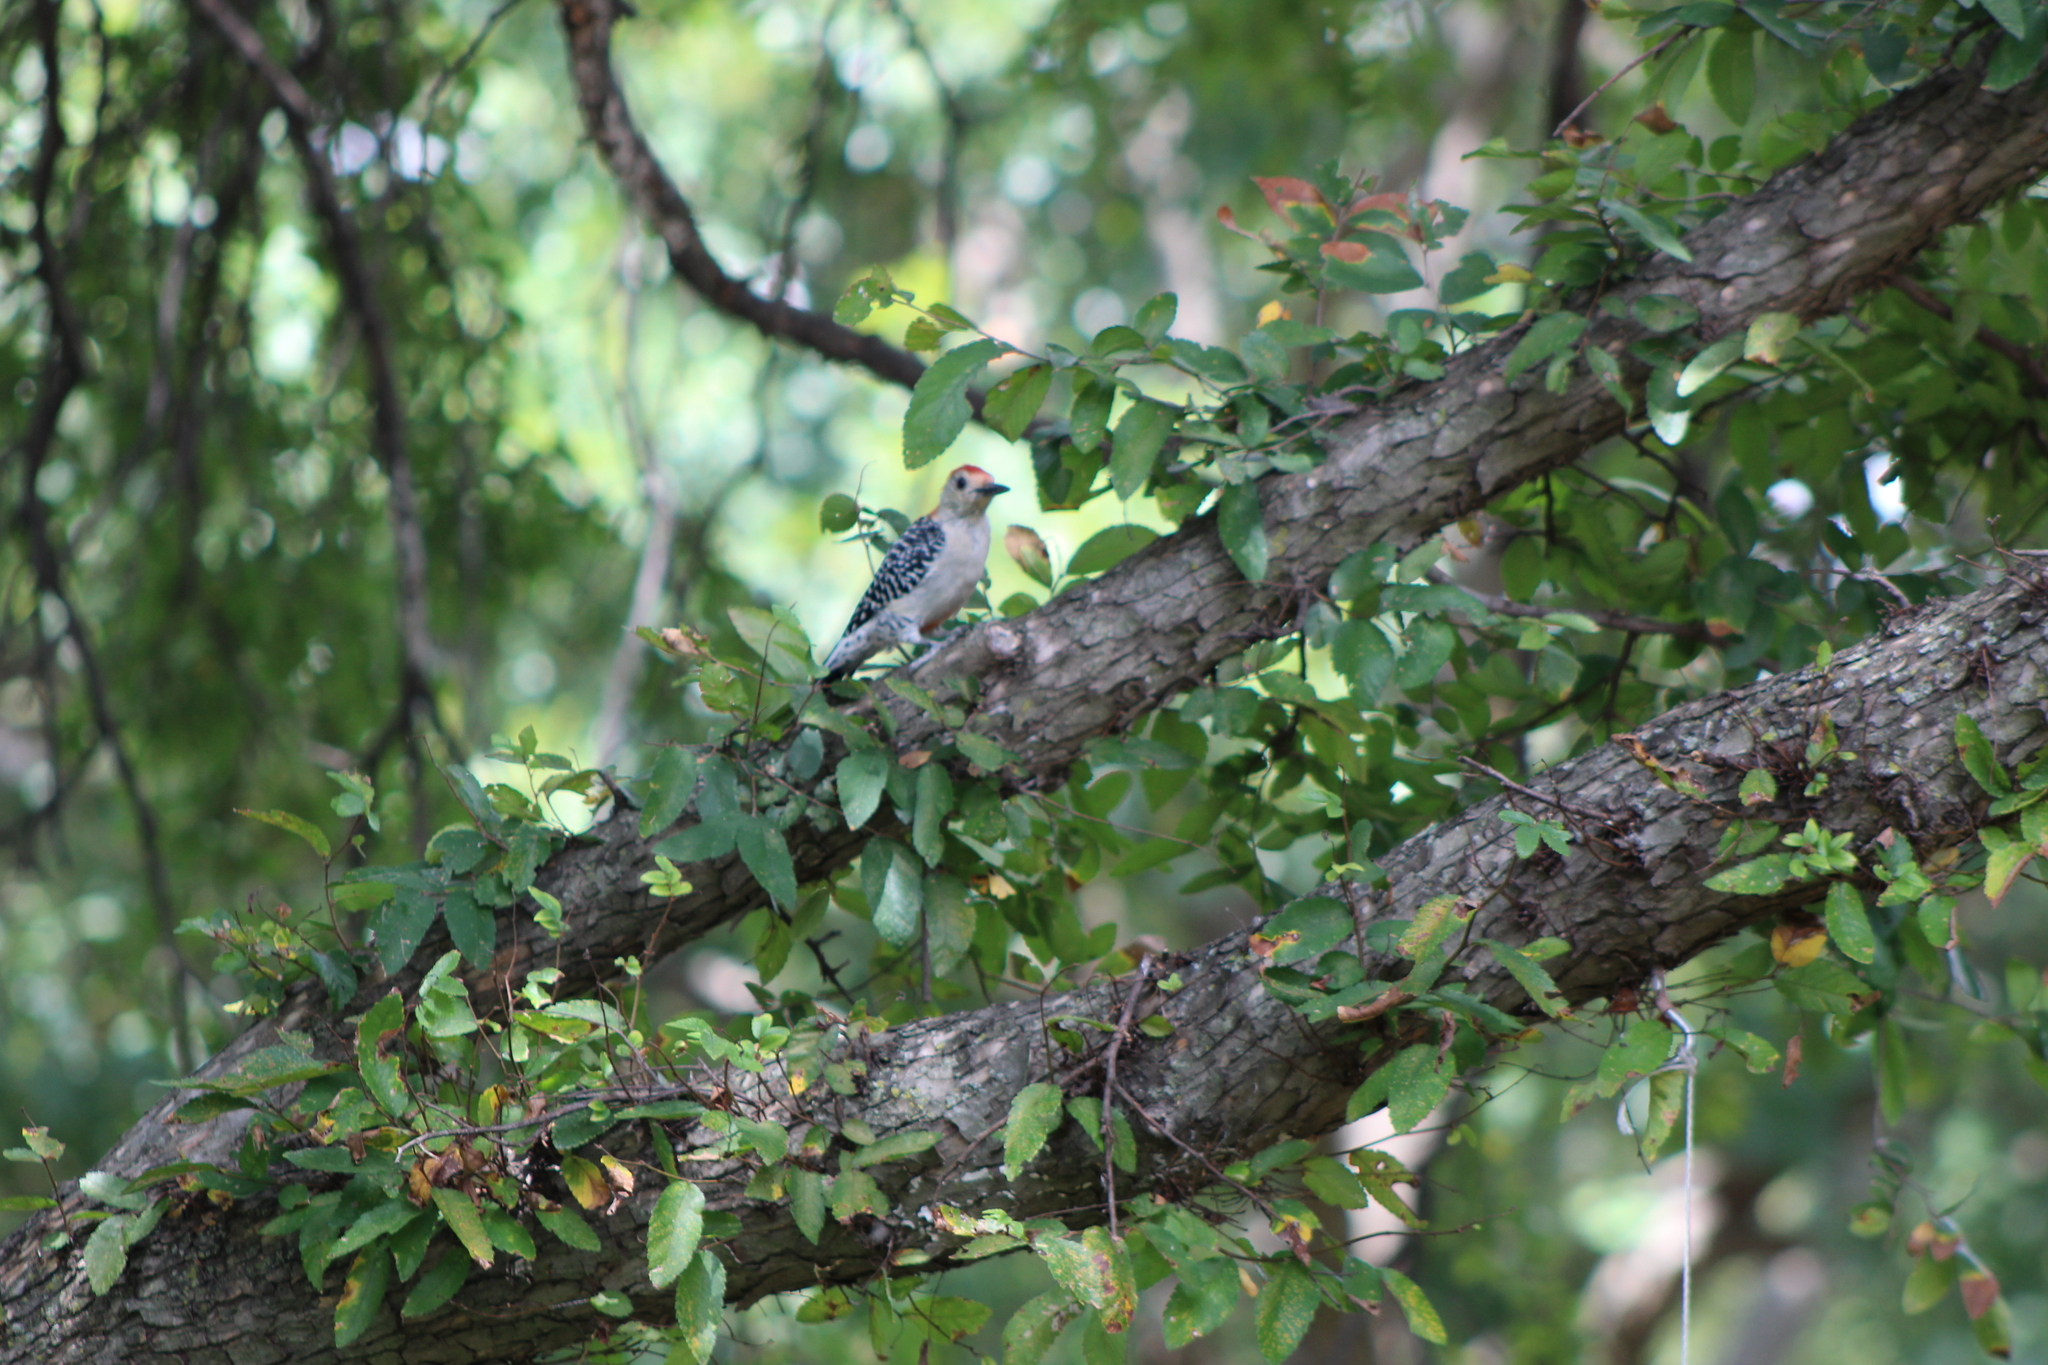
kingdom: Animalia
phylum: Chordata
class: Aves
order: Piciformes
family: Picidae
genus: Melanerpes
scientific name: Melanerpes carolinus
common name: Red-bellied woodpecker
